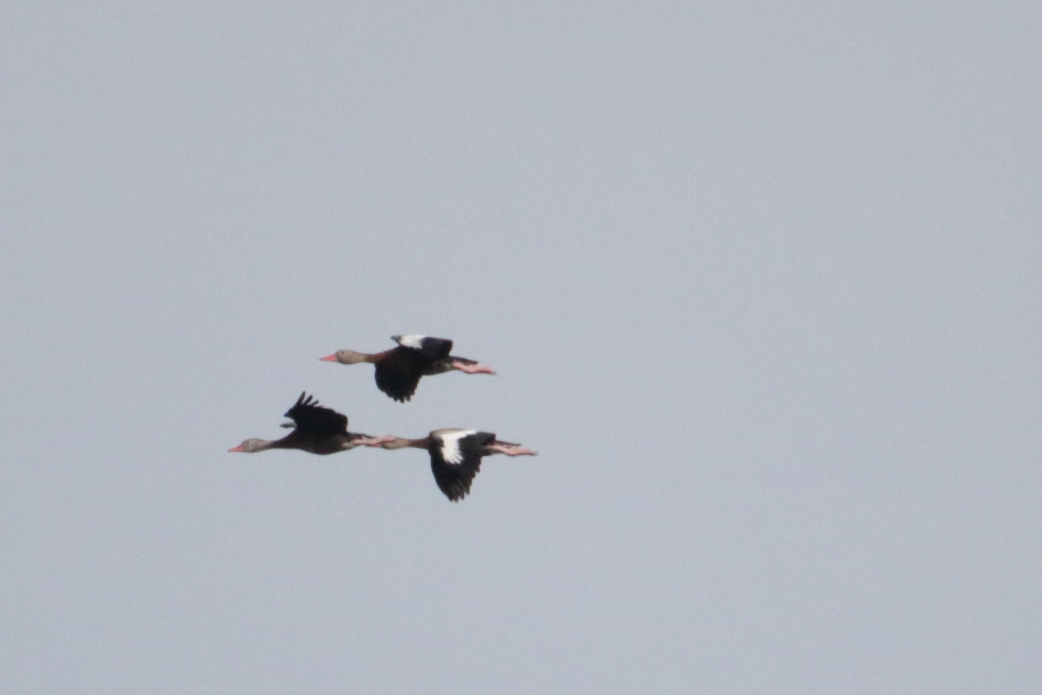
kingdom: Animalia
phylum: Chordata
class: Aves
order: Anseriformes
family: Anatidae
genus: Dendrocygna
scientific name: Dendrocygna autumnalis
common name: Black-bellied whistling duck
